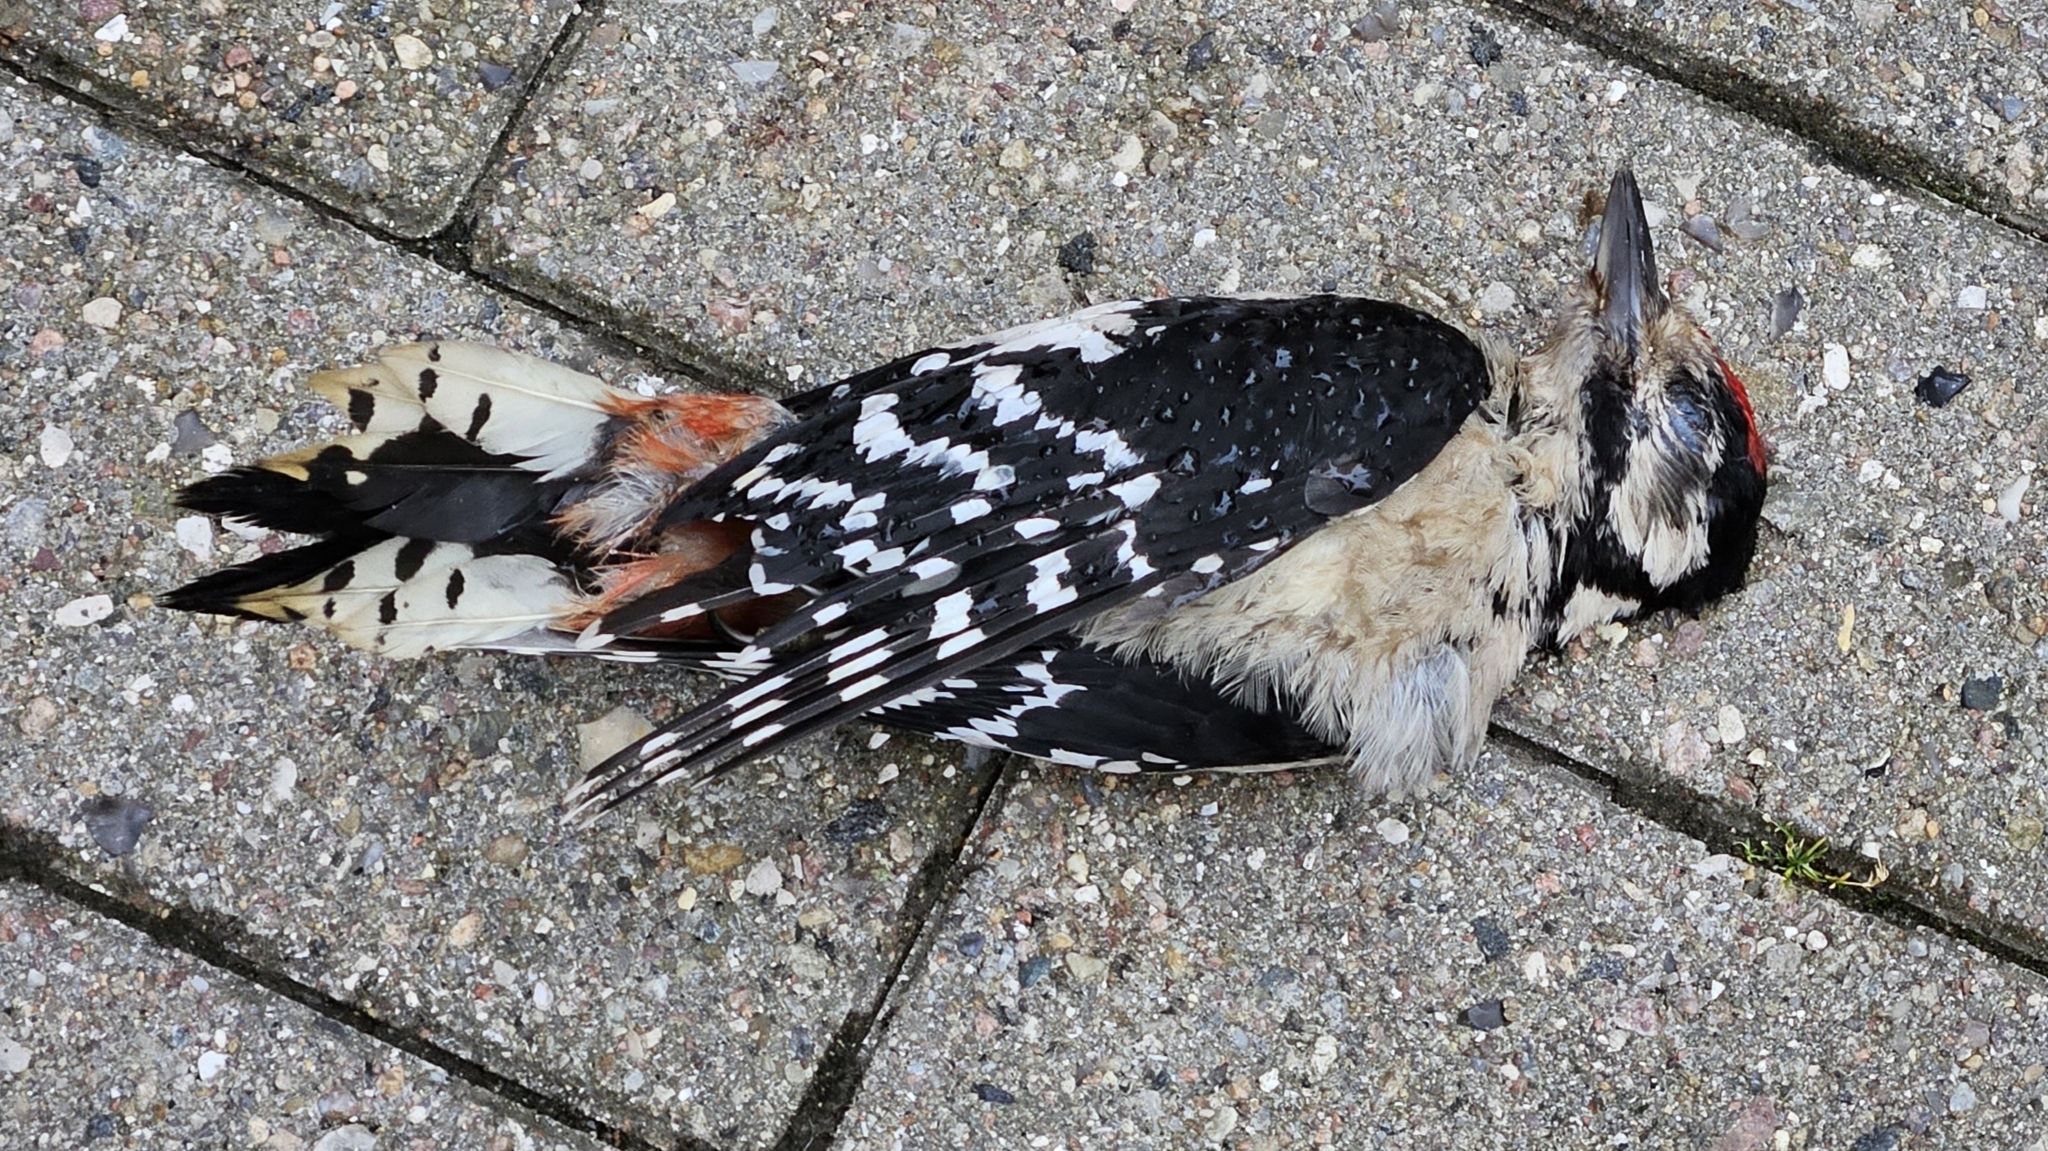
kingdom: Animalia
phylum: Chordata
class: Aves
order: Piciformes
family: Picidae
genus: Dendrocopos
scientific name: Dendrocopos major
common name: Great spotted woodpecker
